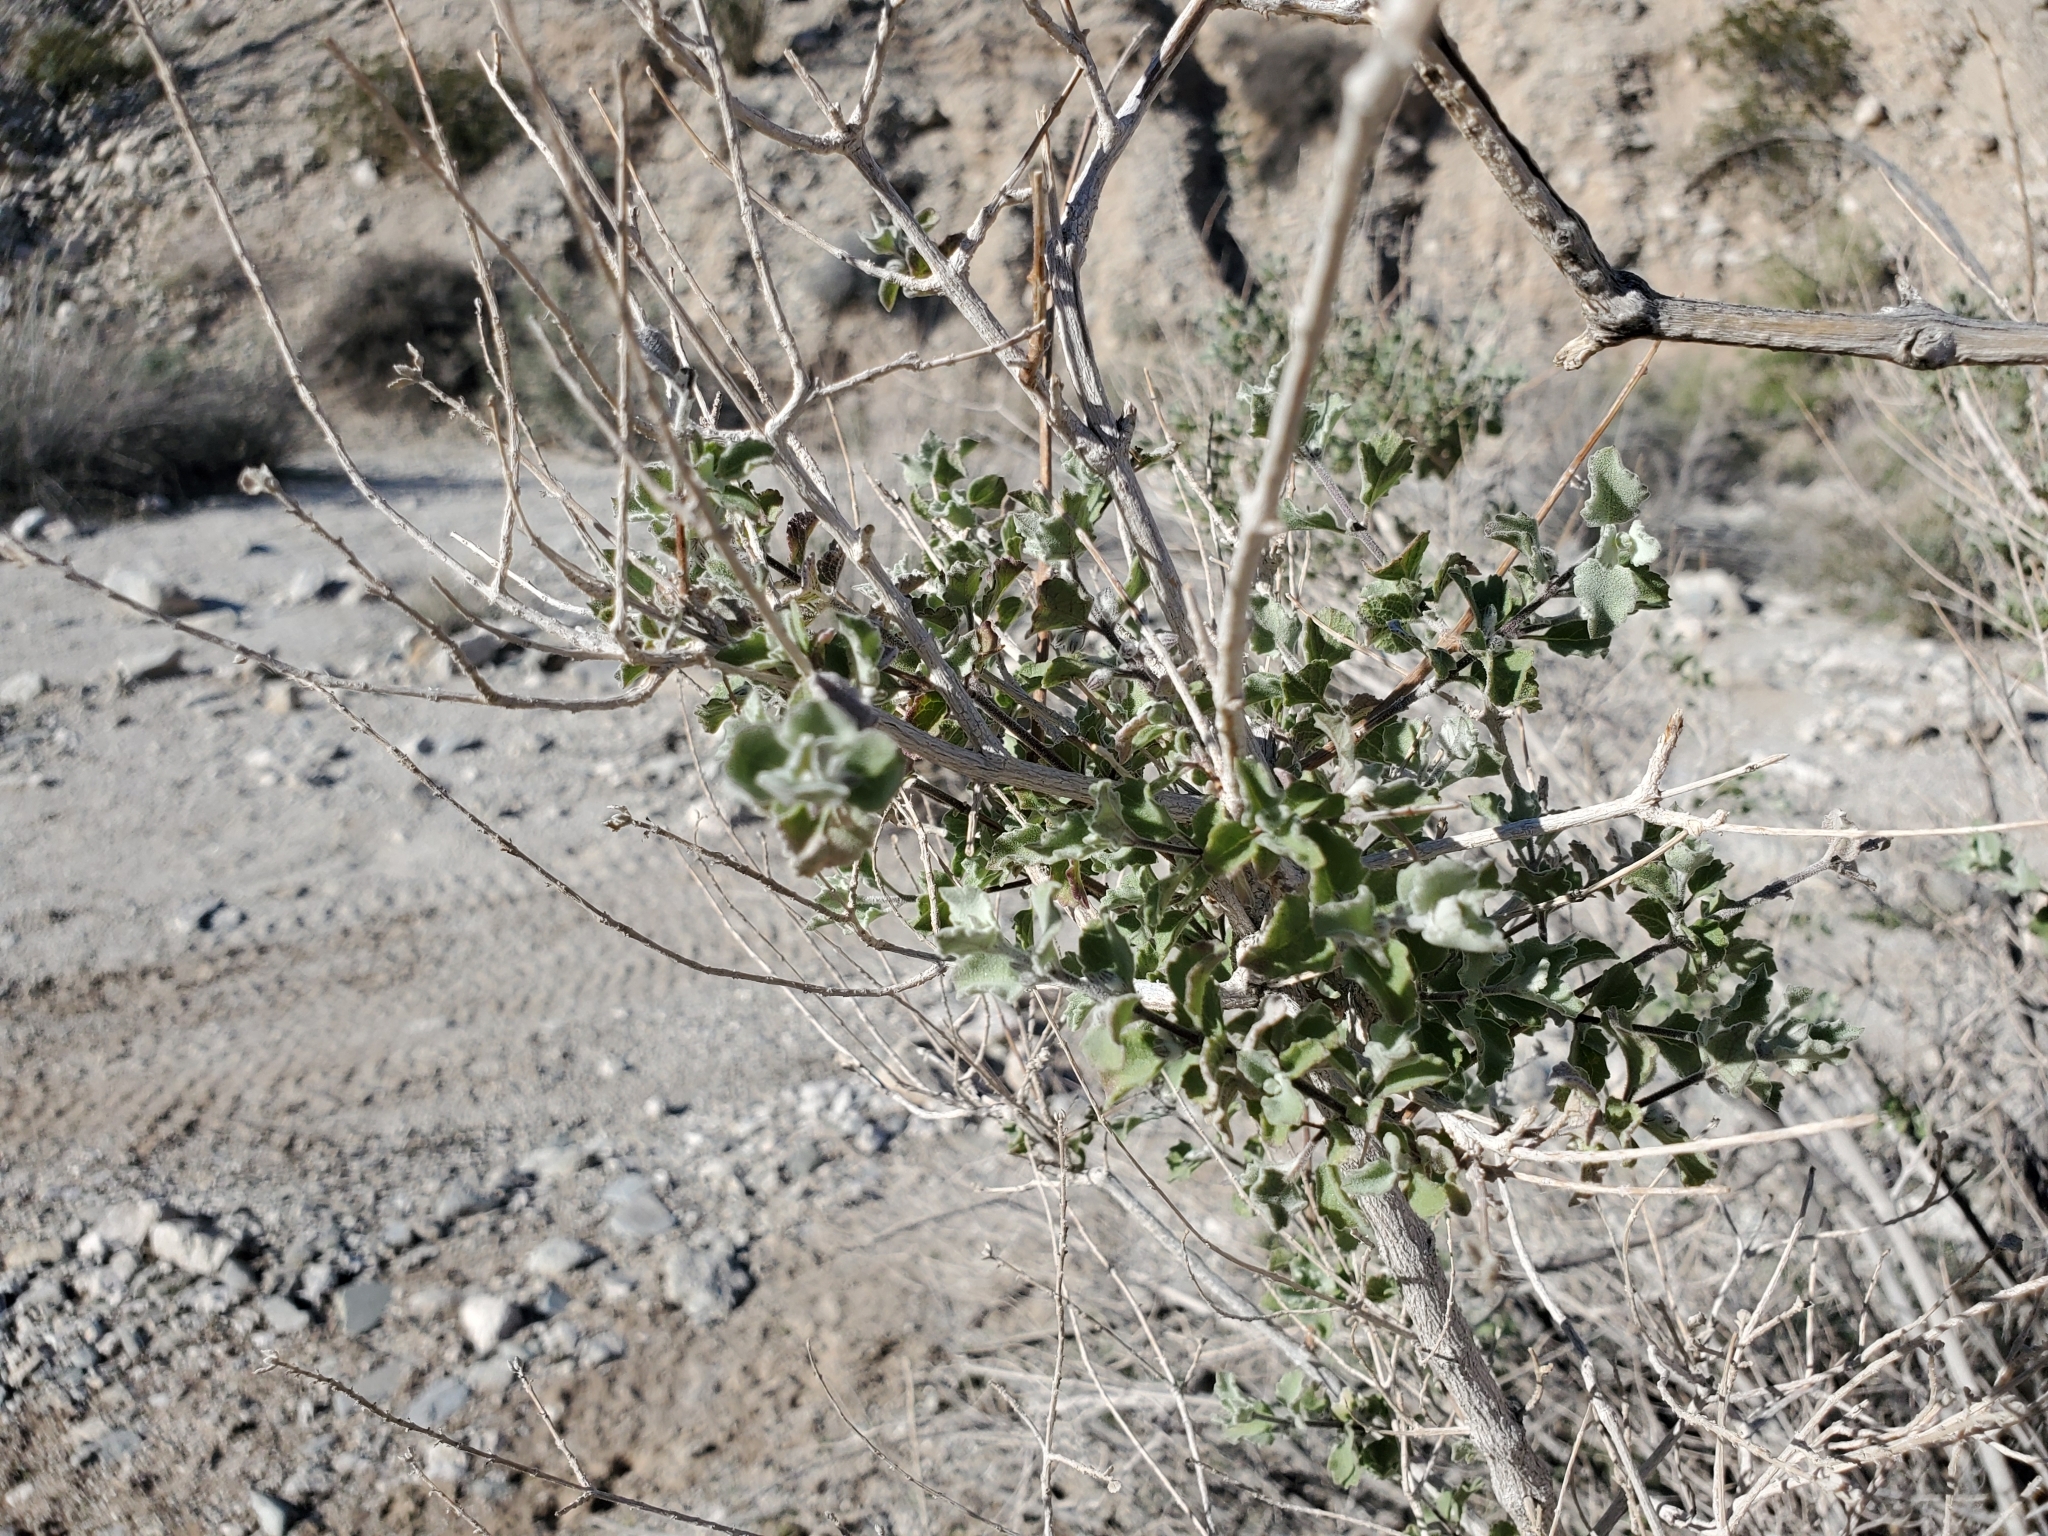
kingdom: Plantae
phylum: Tracheophyta
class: Magnoliopsida
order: Lamiales
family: Lamiaceae
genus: Condea
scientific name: Condea emoryi
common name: Chia
